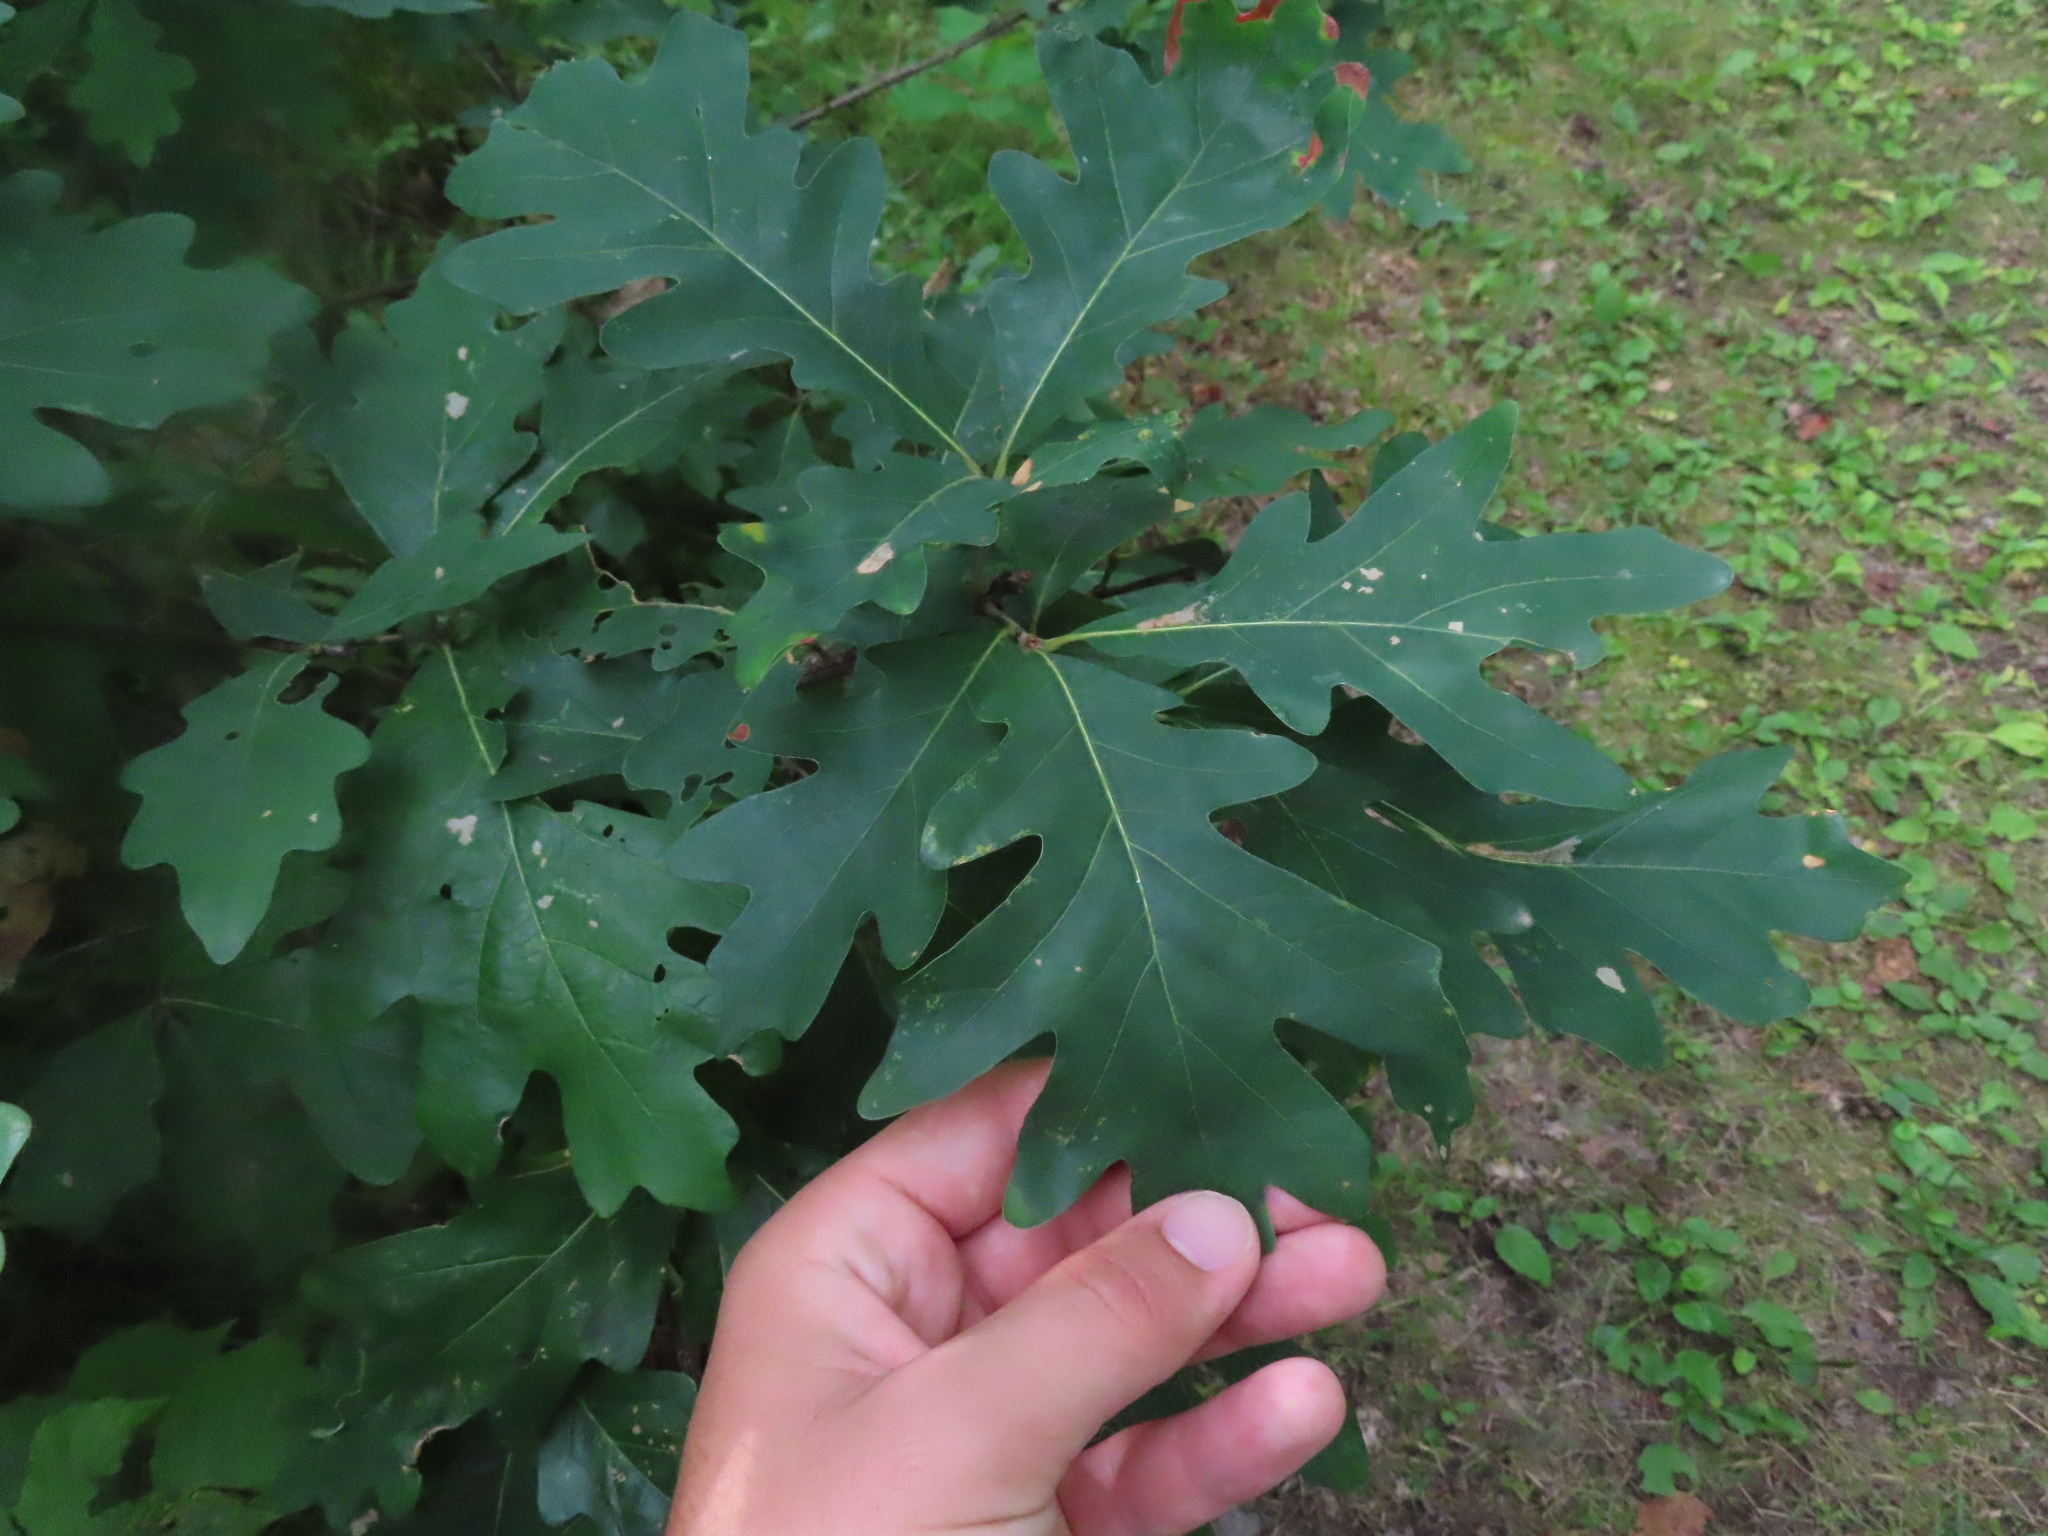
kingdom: Plantae
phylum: Tracheophyta
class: Magnoliopsida
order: Fagales
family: Fagaceae
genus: Quercus
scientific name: Quercus alba
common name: White oak
